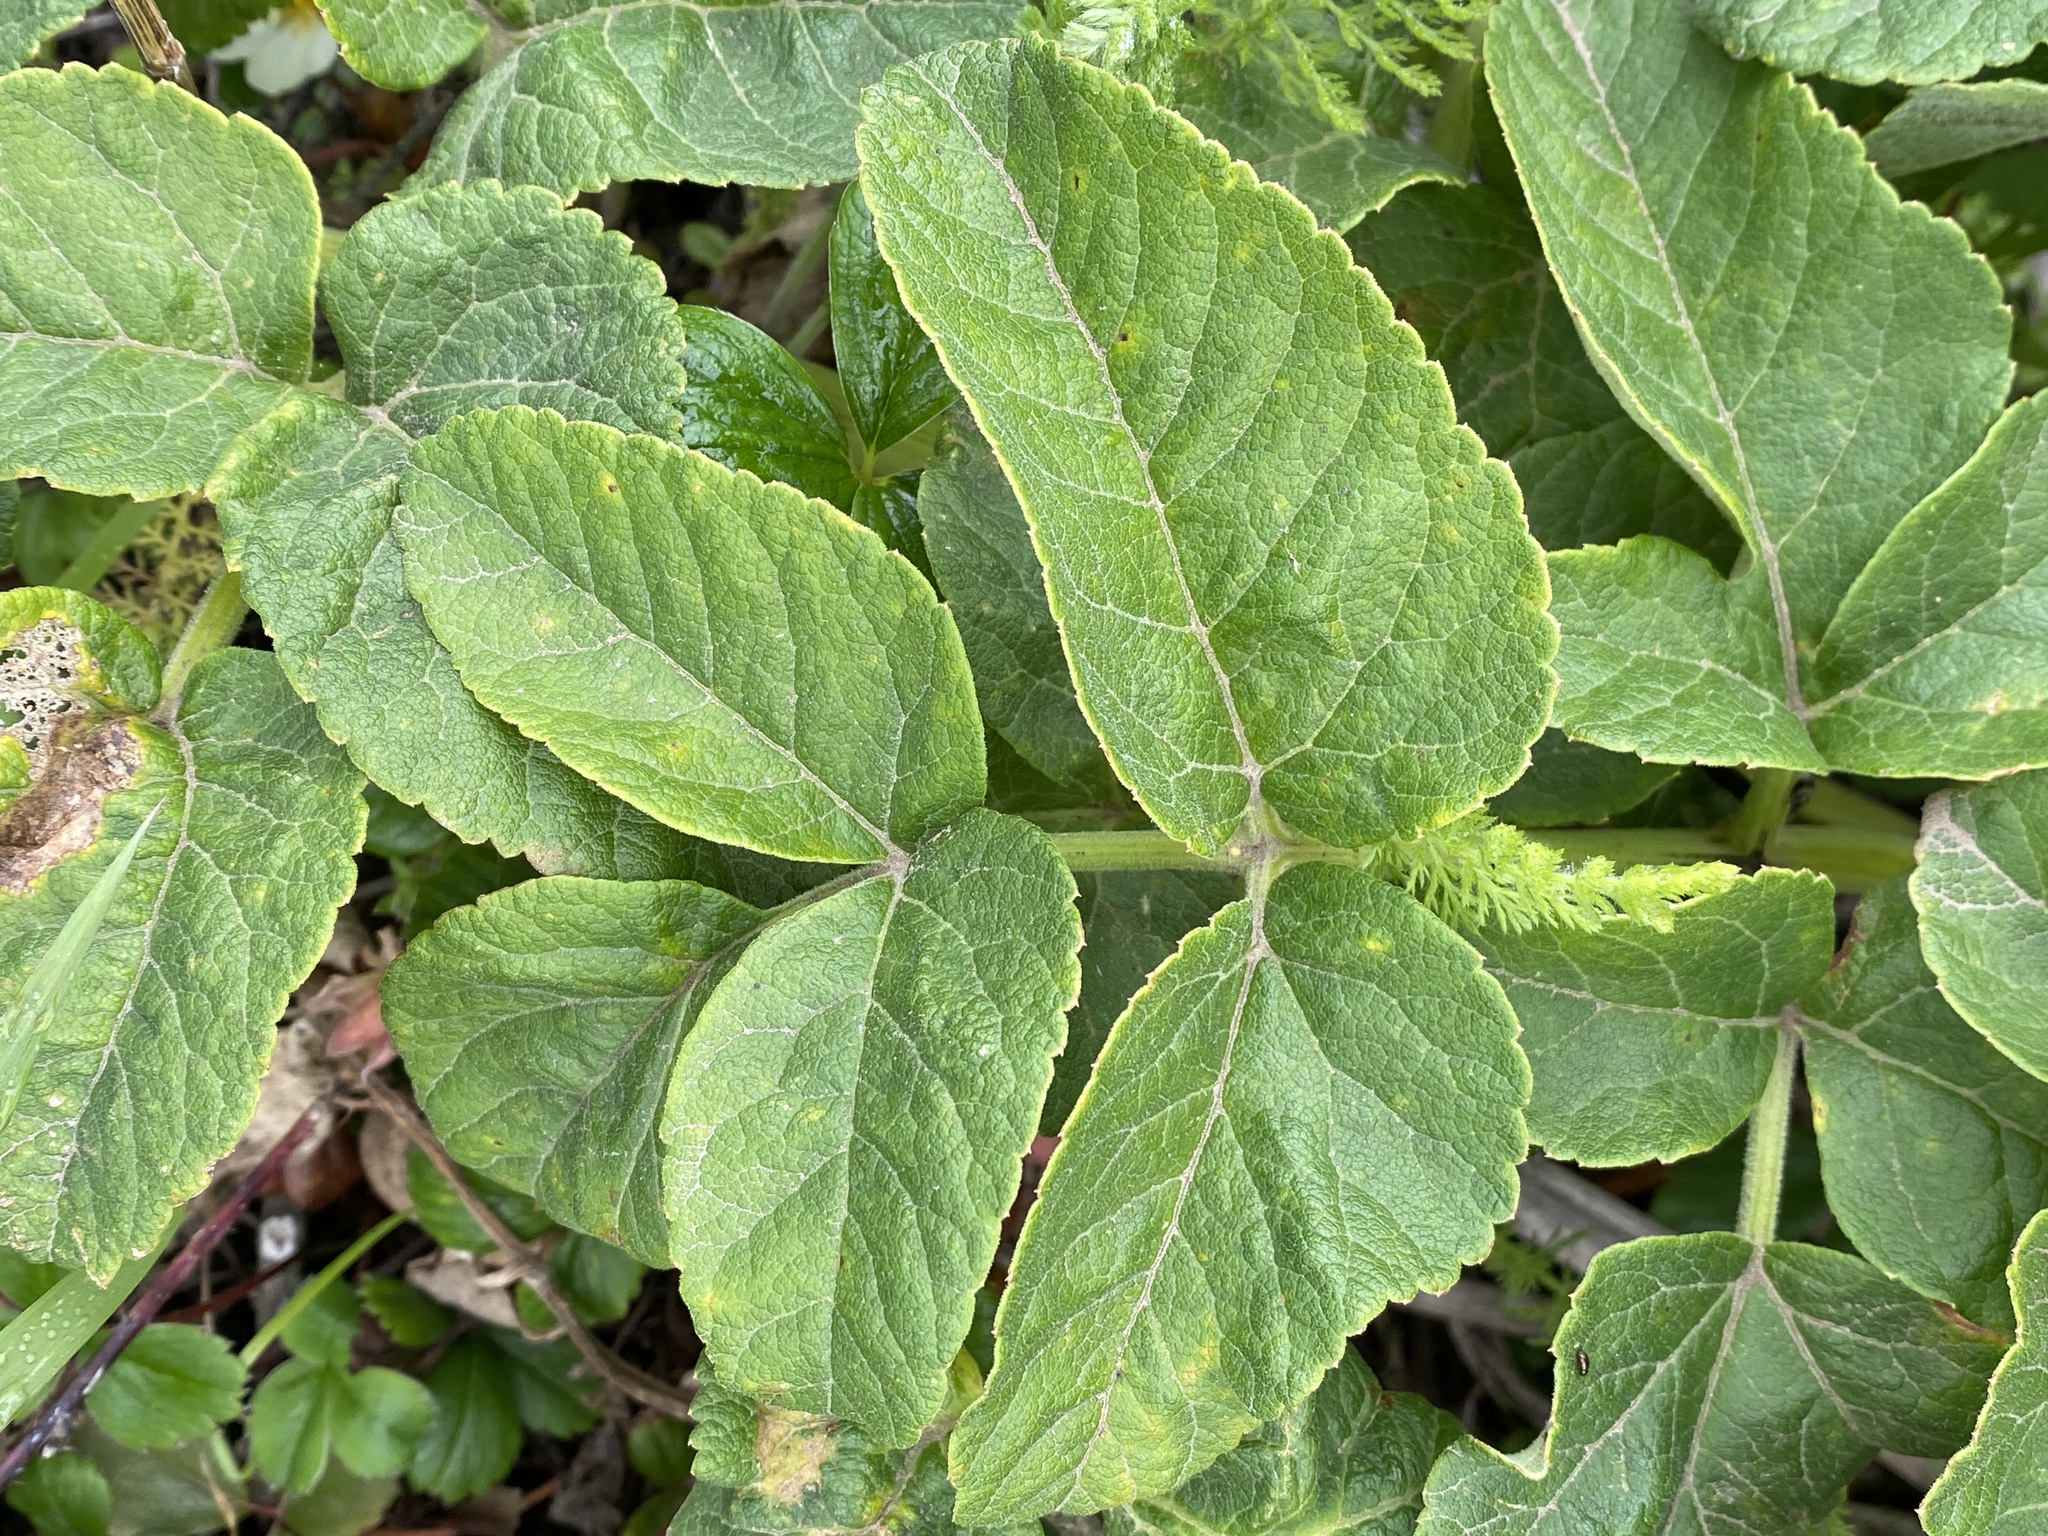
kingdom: Plantae
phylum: Tracheophyta
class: Magnoliopsida
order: Apiales
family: Apiaceae
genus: Angelica
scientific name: Angelica hendersonii
